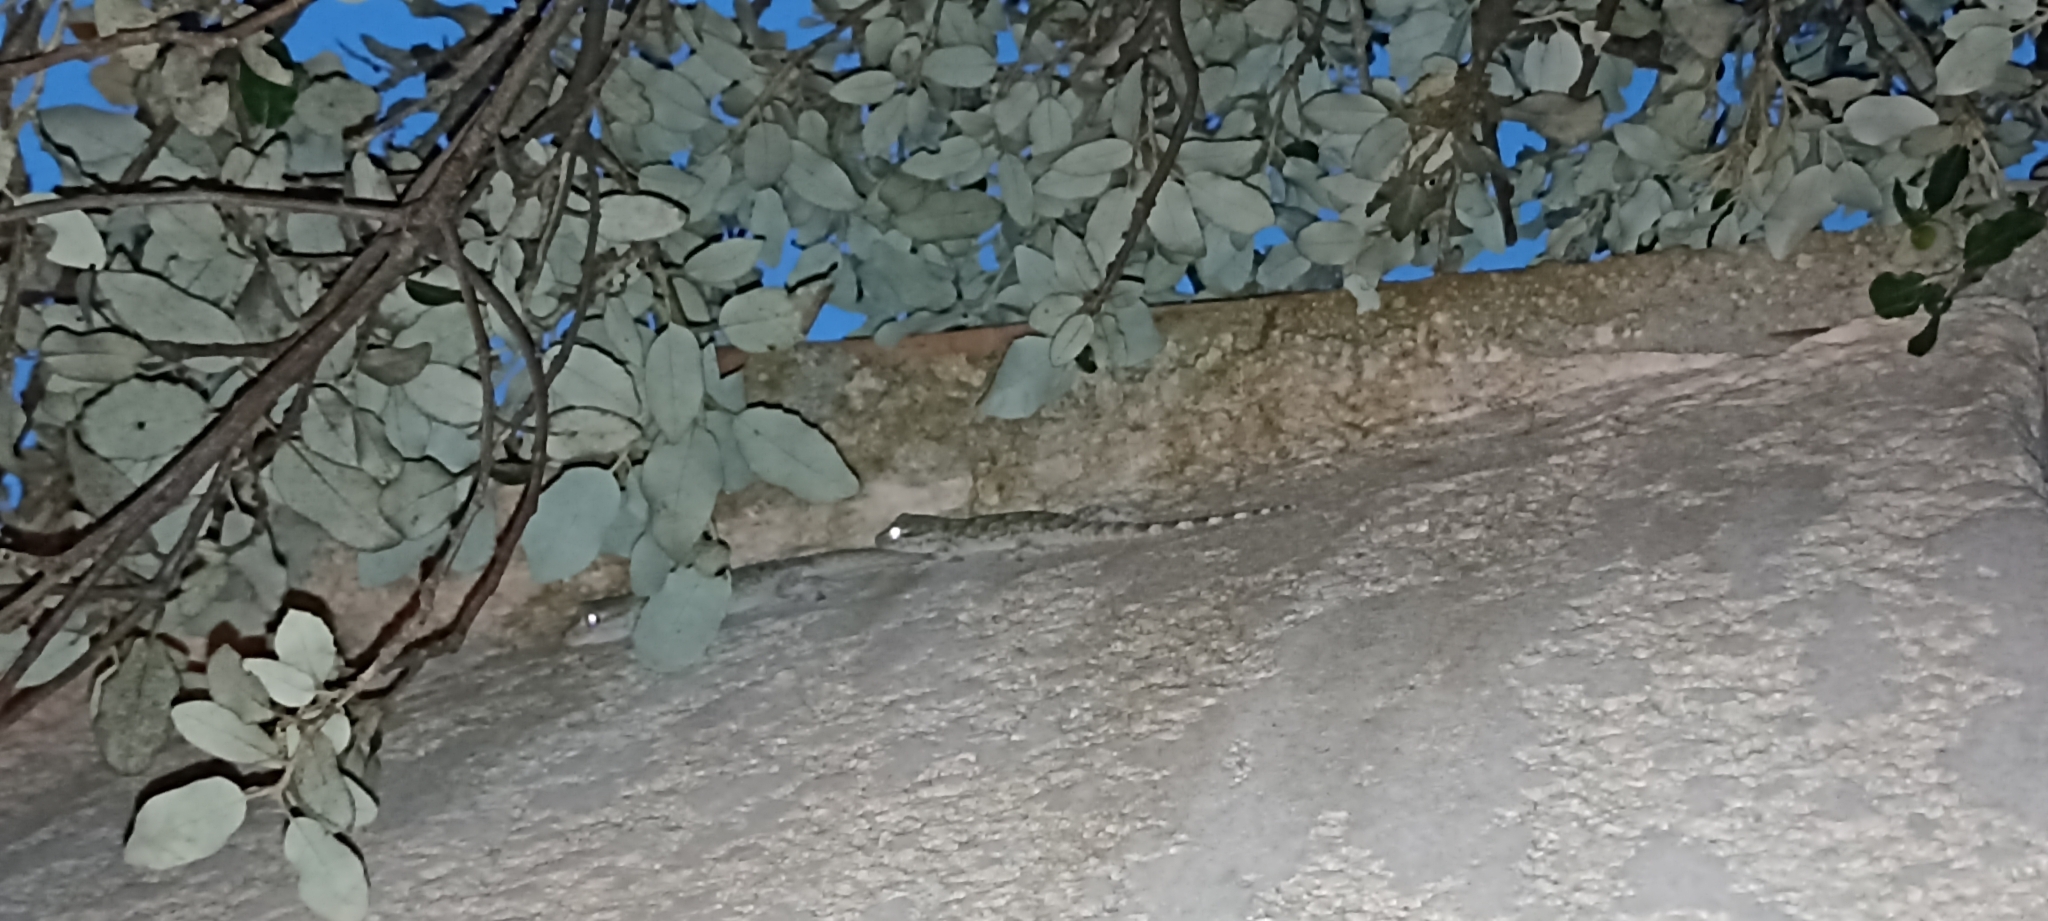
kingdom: Animalia
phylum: Chordata
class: Squamata
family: Phyllodactylidae
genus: Tarentola
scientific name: Tarentola mauritanica
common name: Moorish gecko
